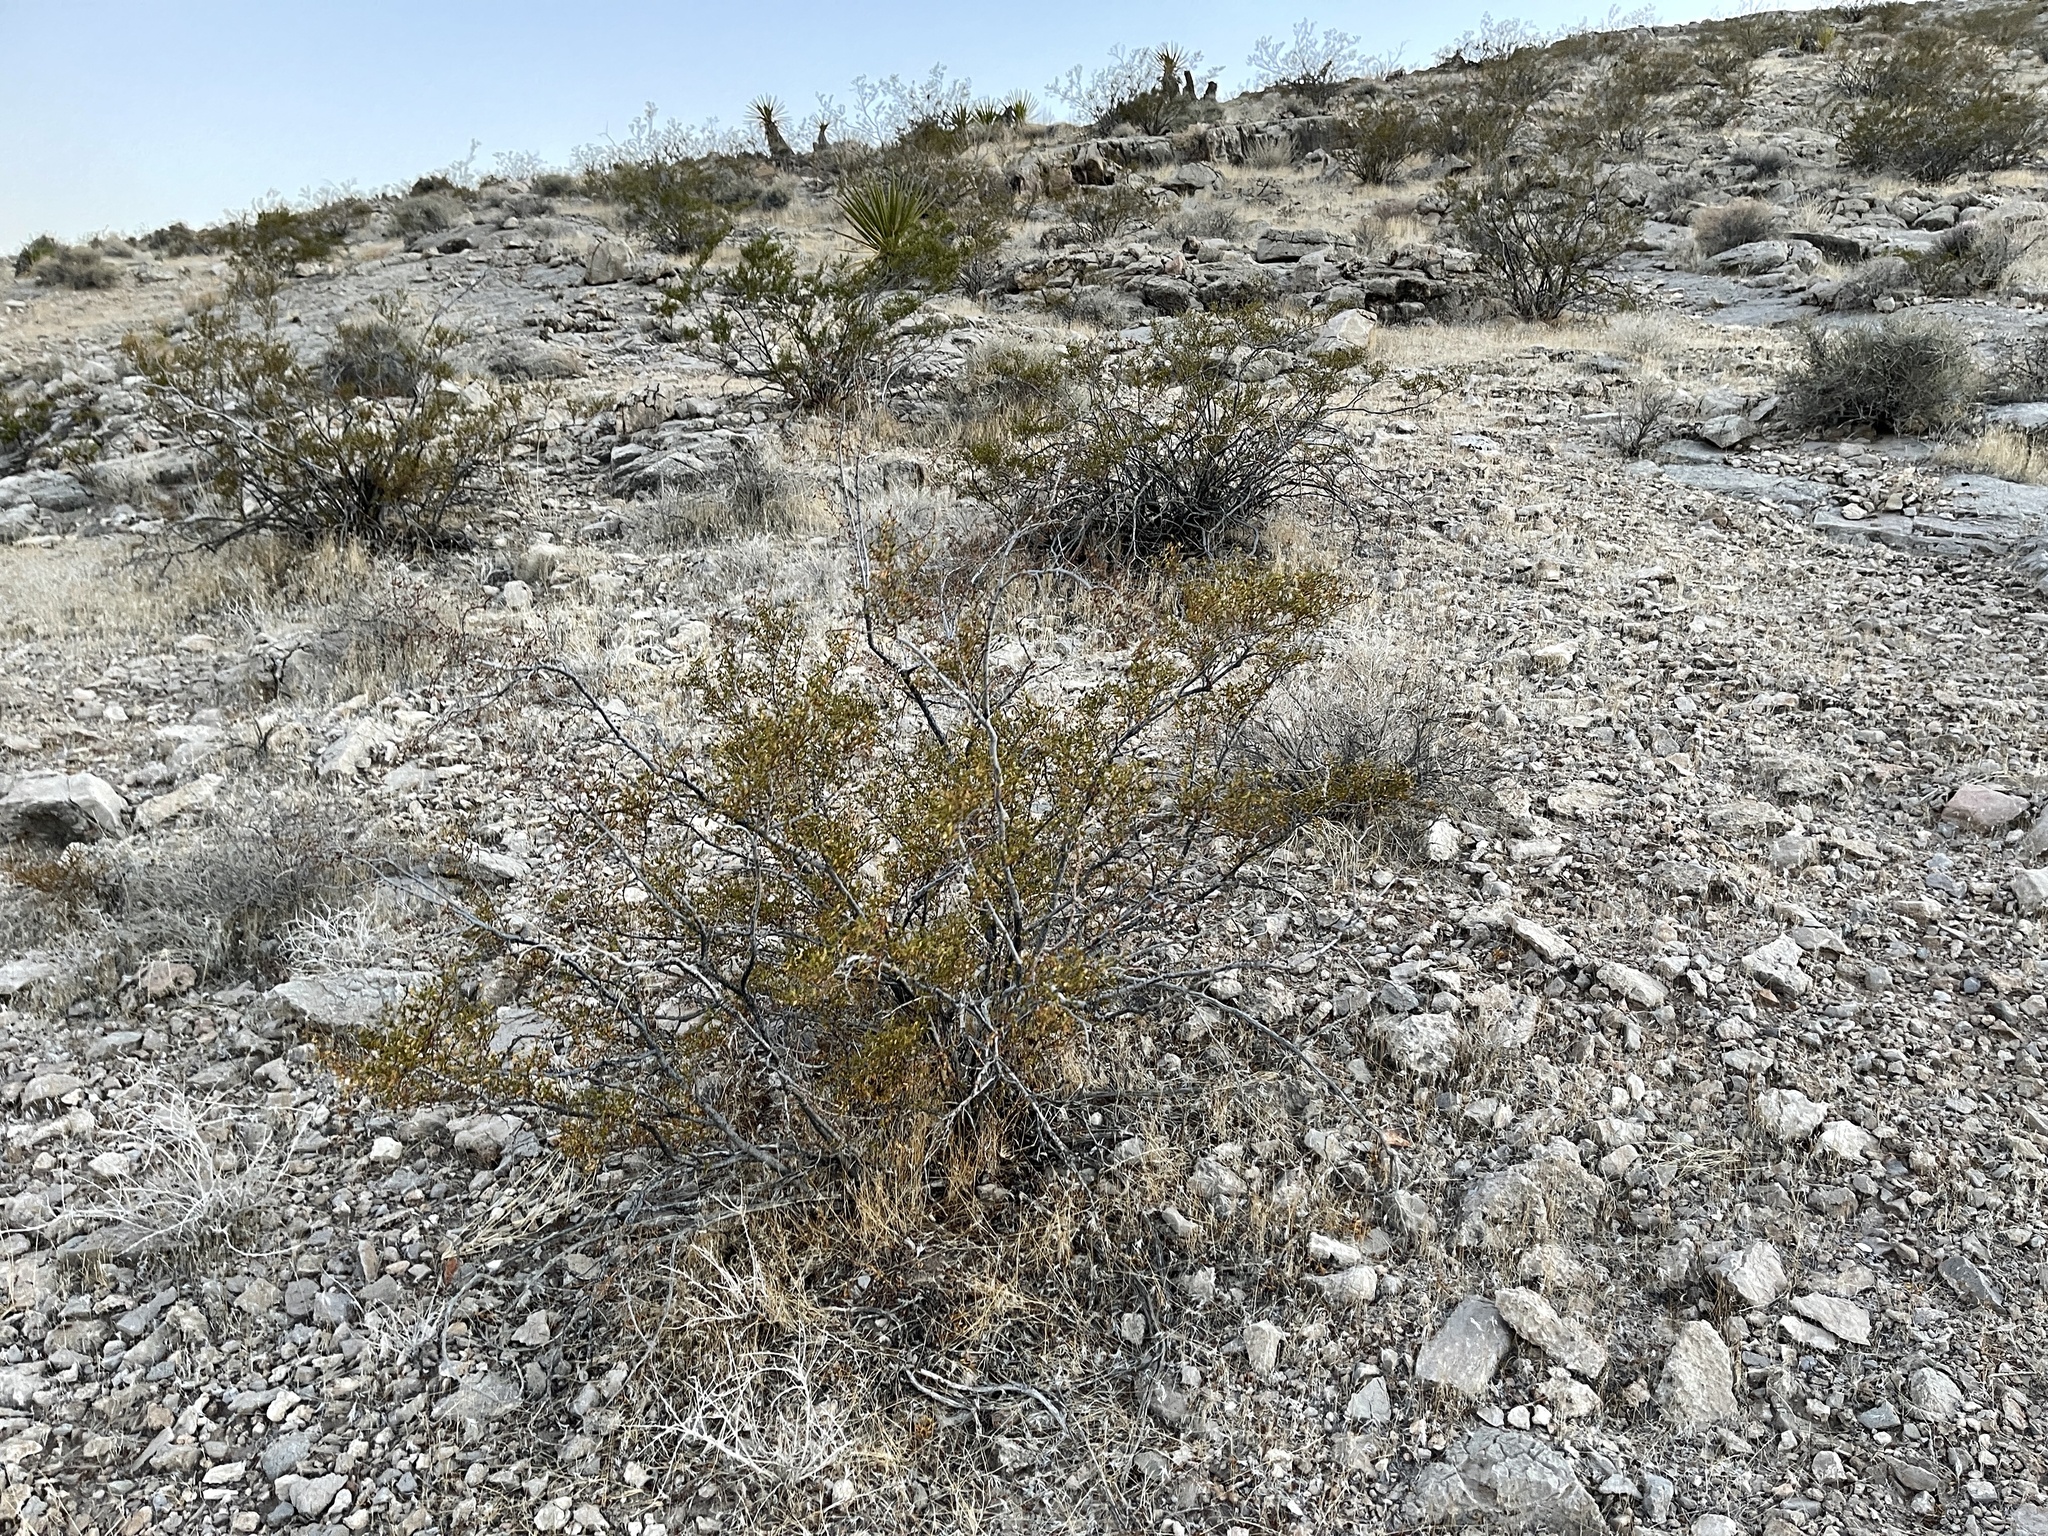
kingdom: Plantae
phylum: Tracheophyta
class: Magnoliopsida
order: Zygophyllales
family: Zygophyllaceae
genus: Larrea
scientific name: Larrea tridentata
